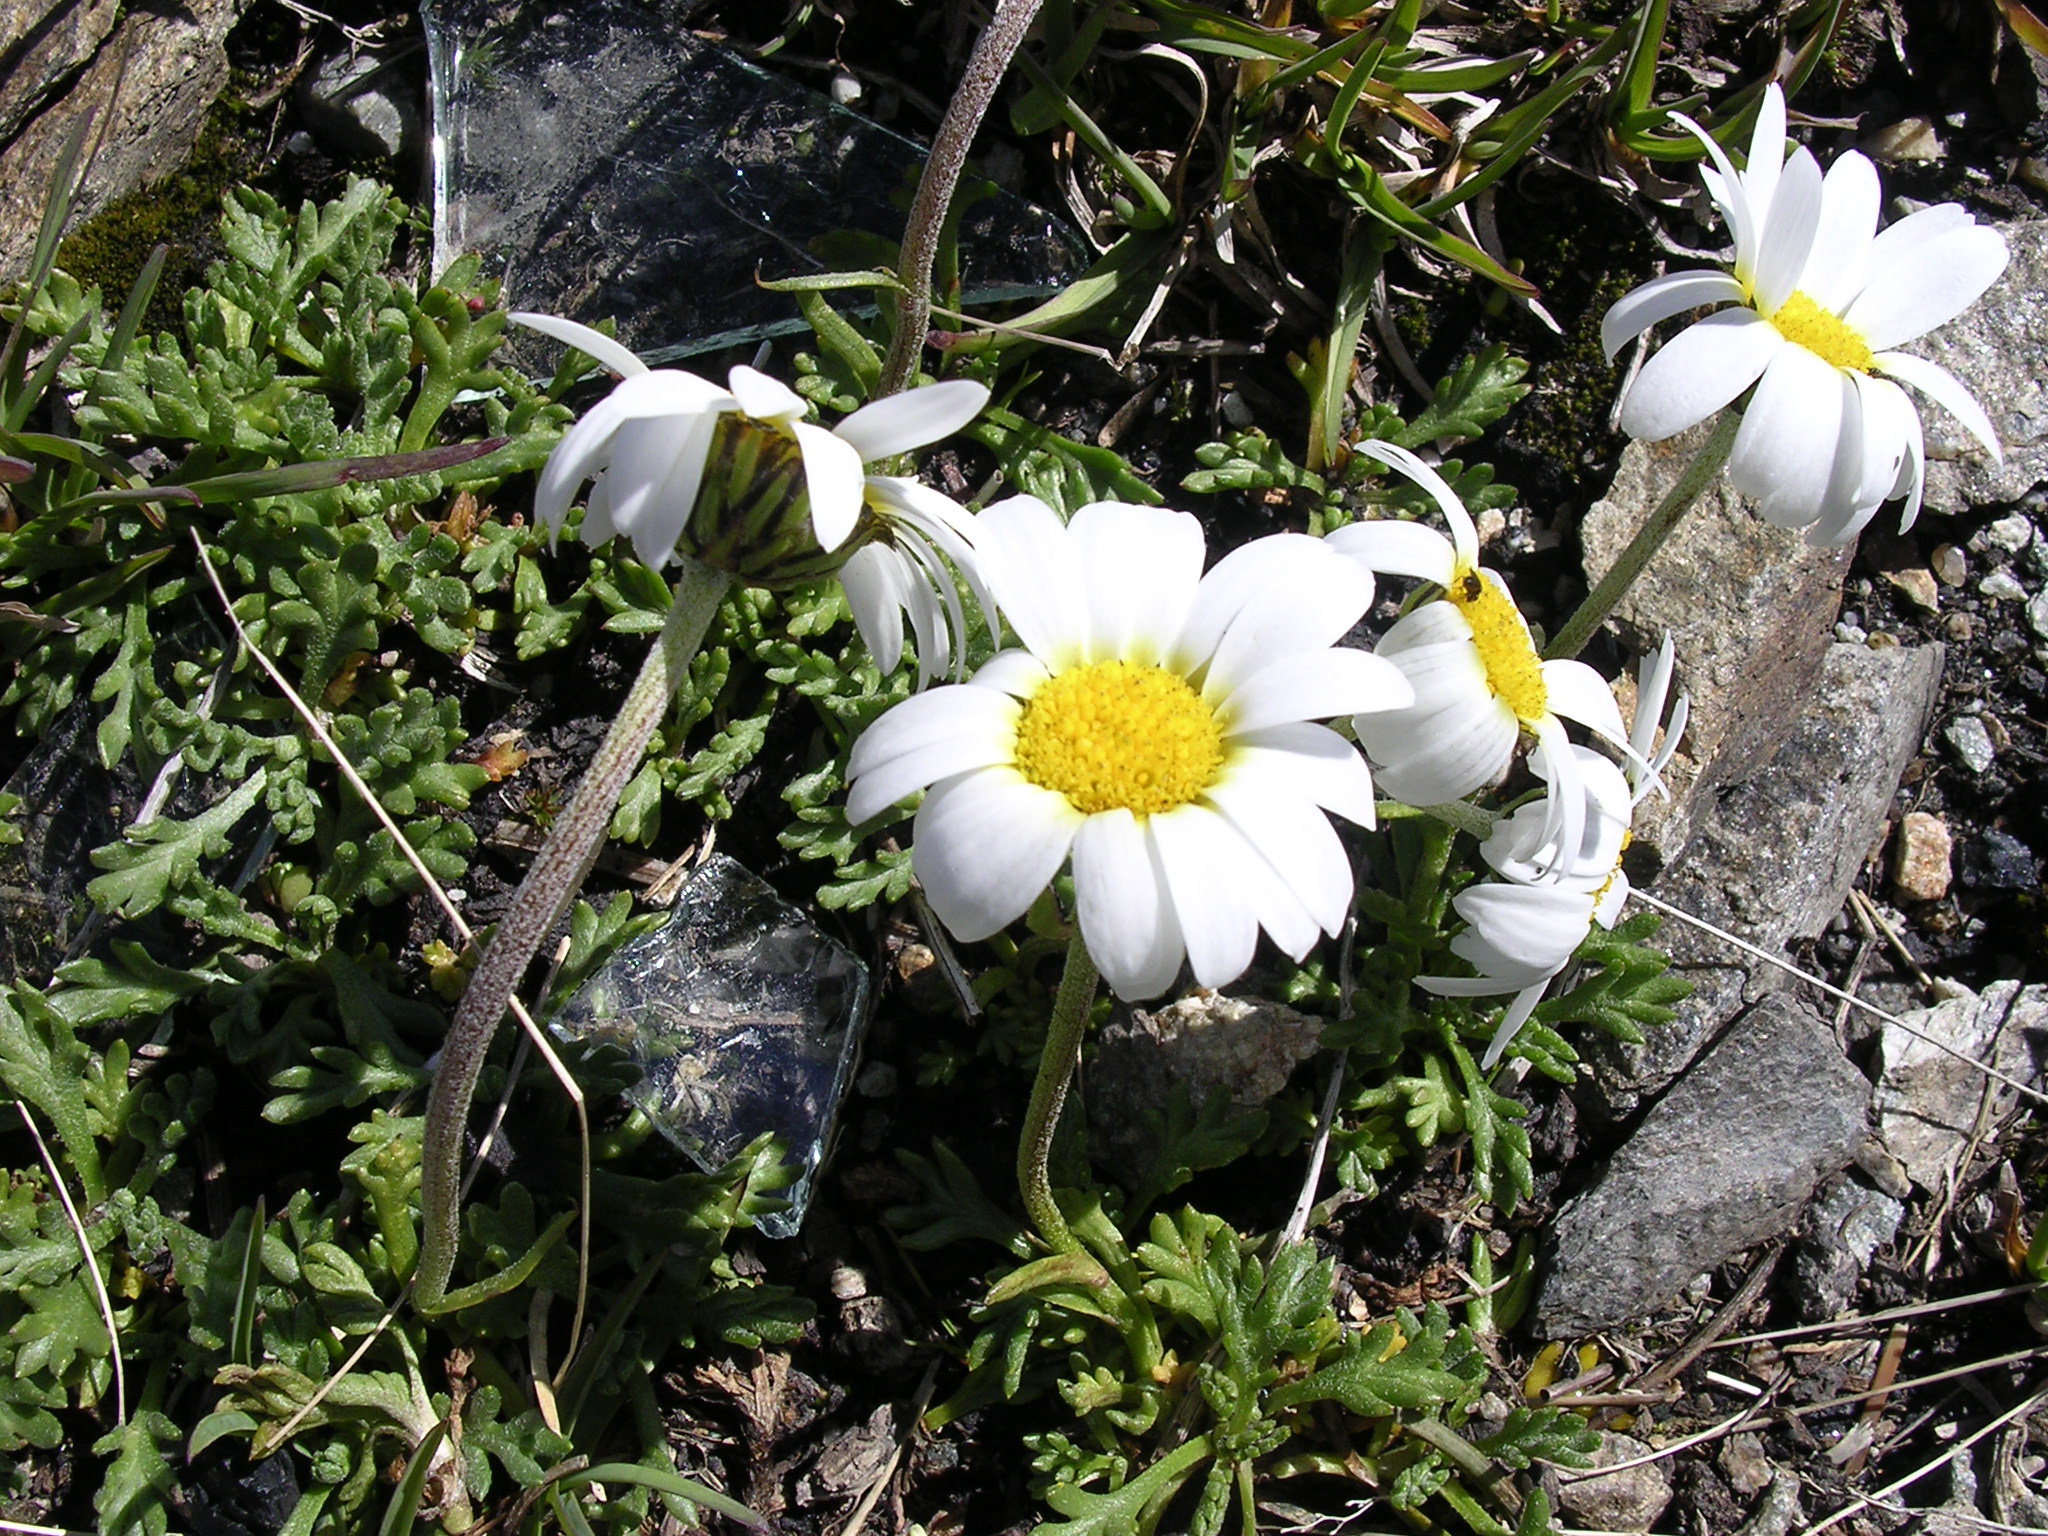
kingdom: Plantae
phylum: Tracheophyta
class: Magnoliopsida
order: Asterales
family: Asteraceae
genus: Leucanthemopsis
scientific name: Leucanthemopsis alpina
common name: Alpine moon daisy
